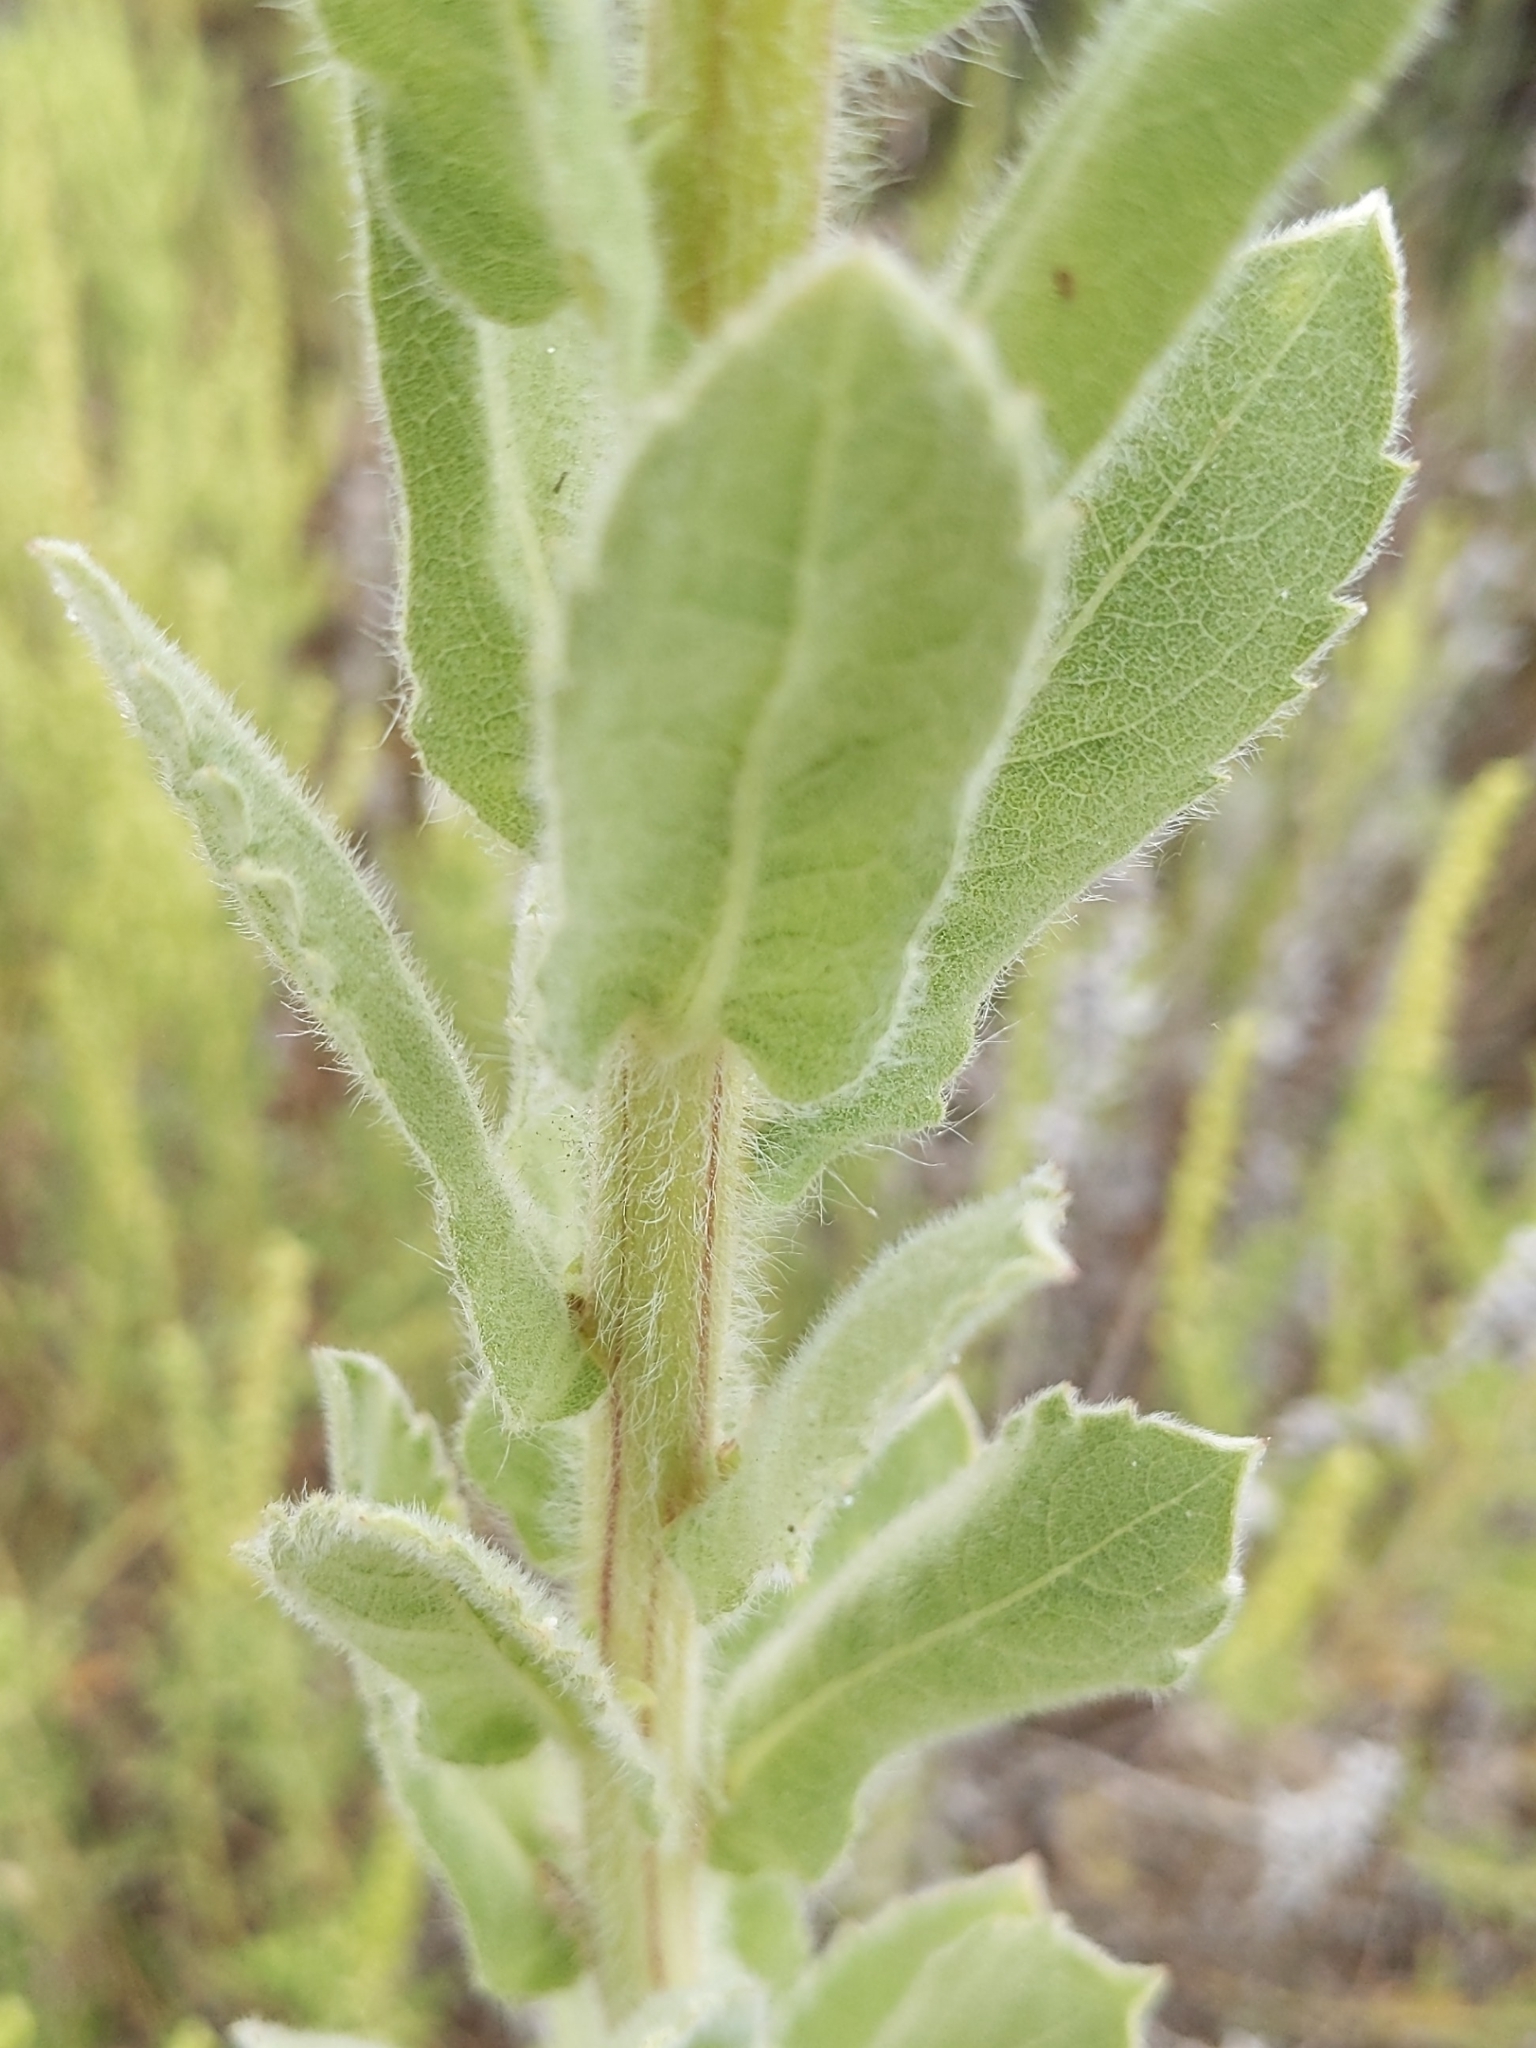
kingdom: Plantae
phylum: Tracheophyta
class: Magnoliopsida
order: Asterales
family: Asteraceae
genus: Heterotheca
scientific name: Heterotheca grandiflora
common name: Telegraphweed
